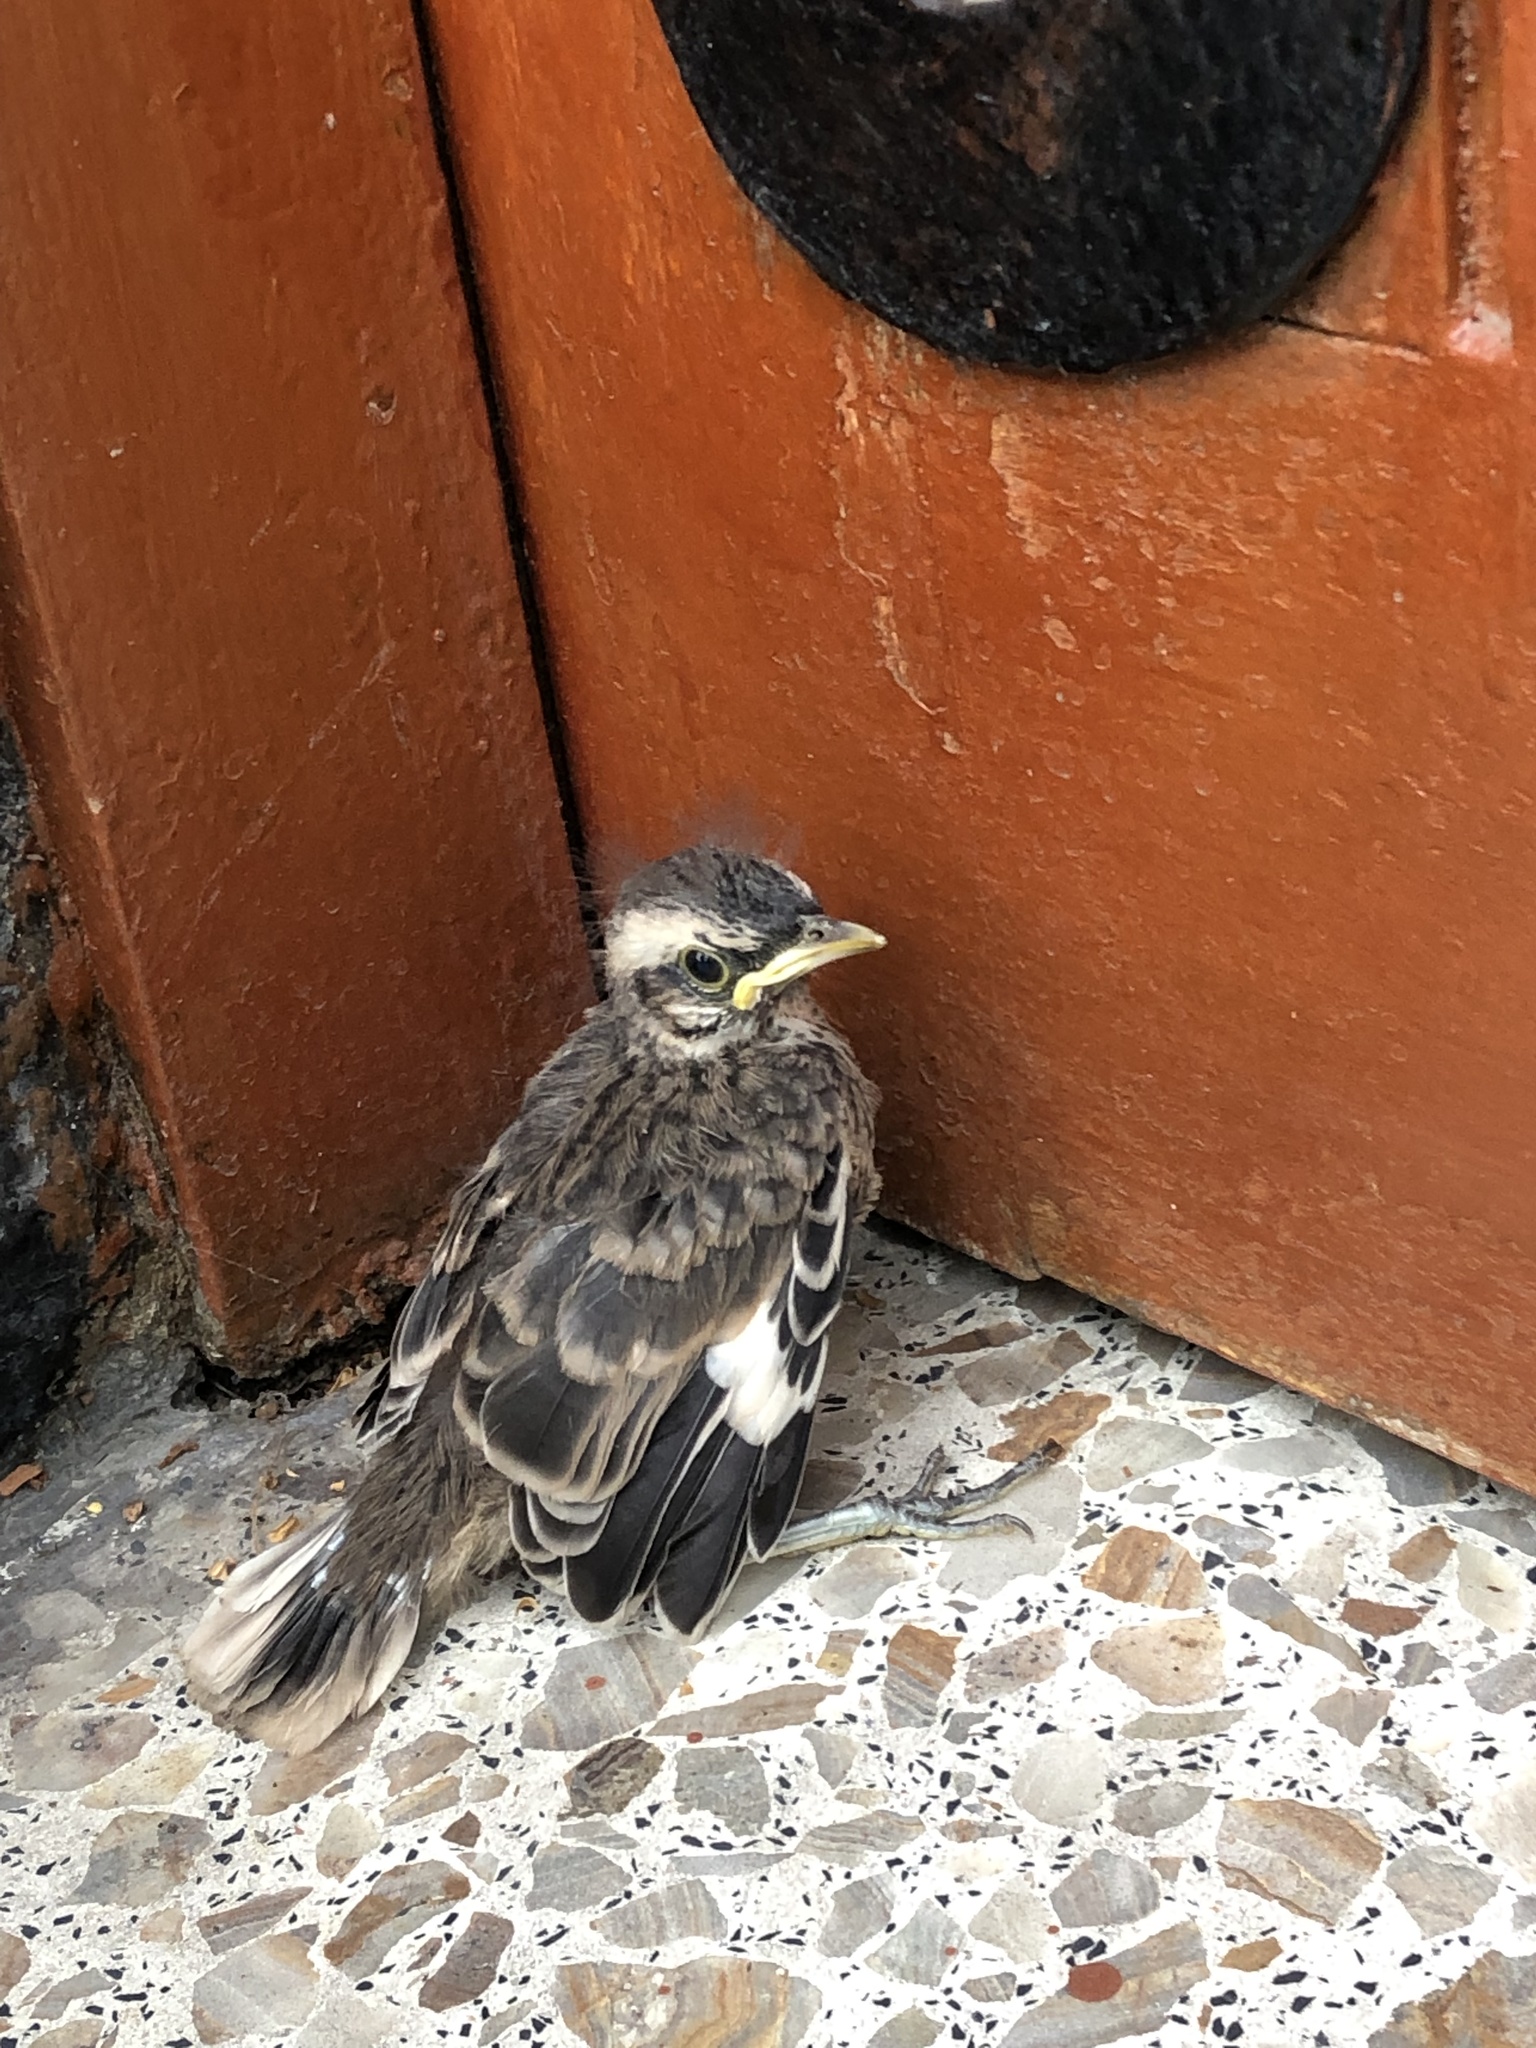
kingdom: Animalia
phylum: Chordata
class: Aves
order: Passeriformes
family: Mimidae
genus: Mimus
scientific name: Mimus longicaudatus
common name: Long-tailed mockingbird
